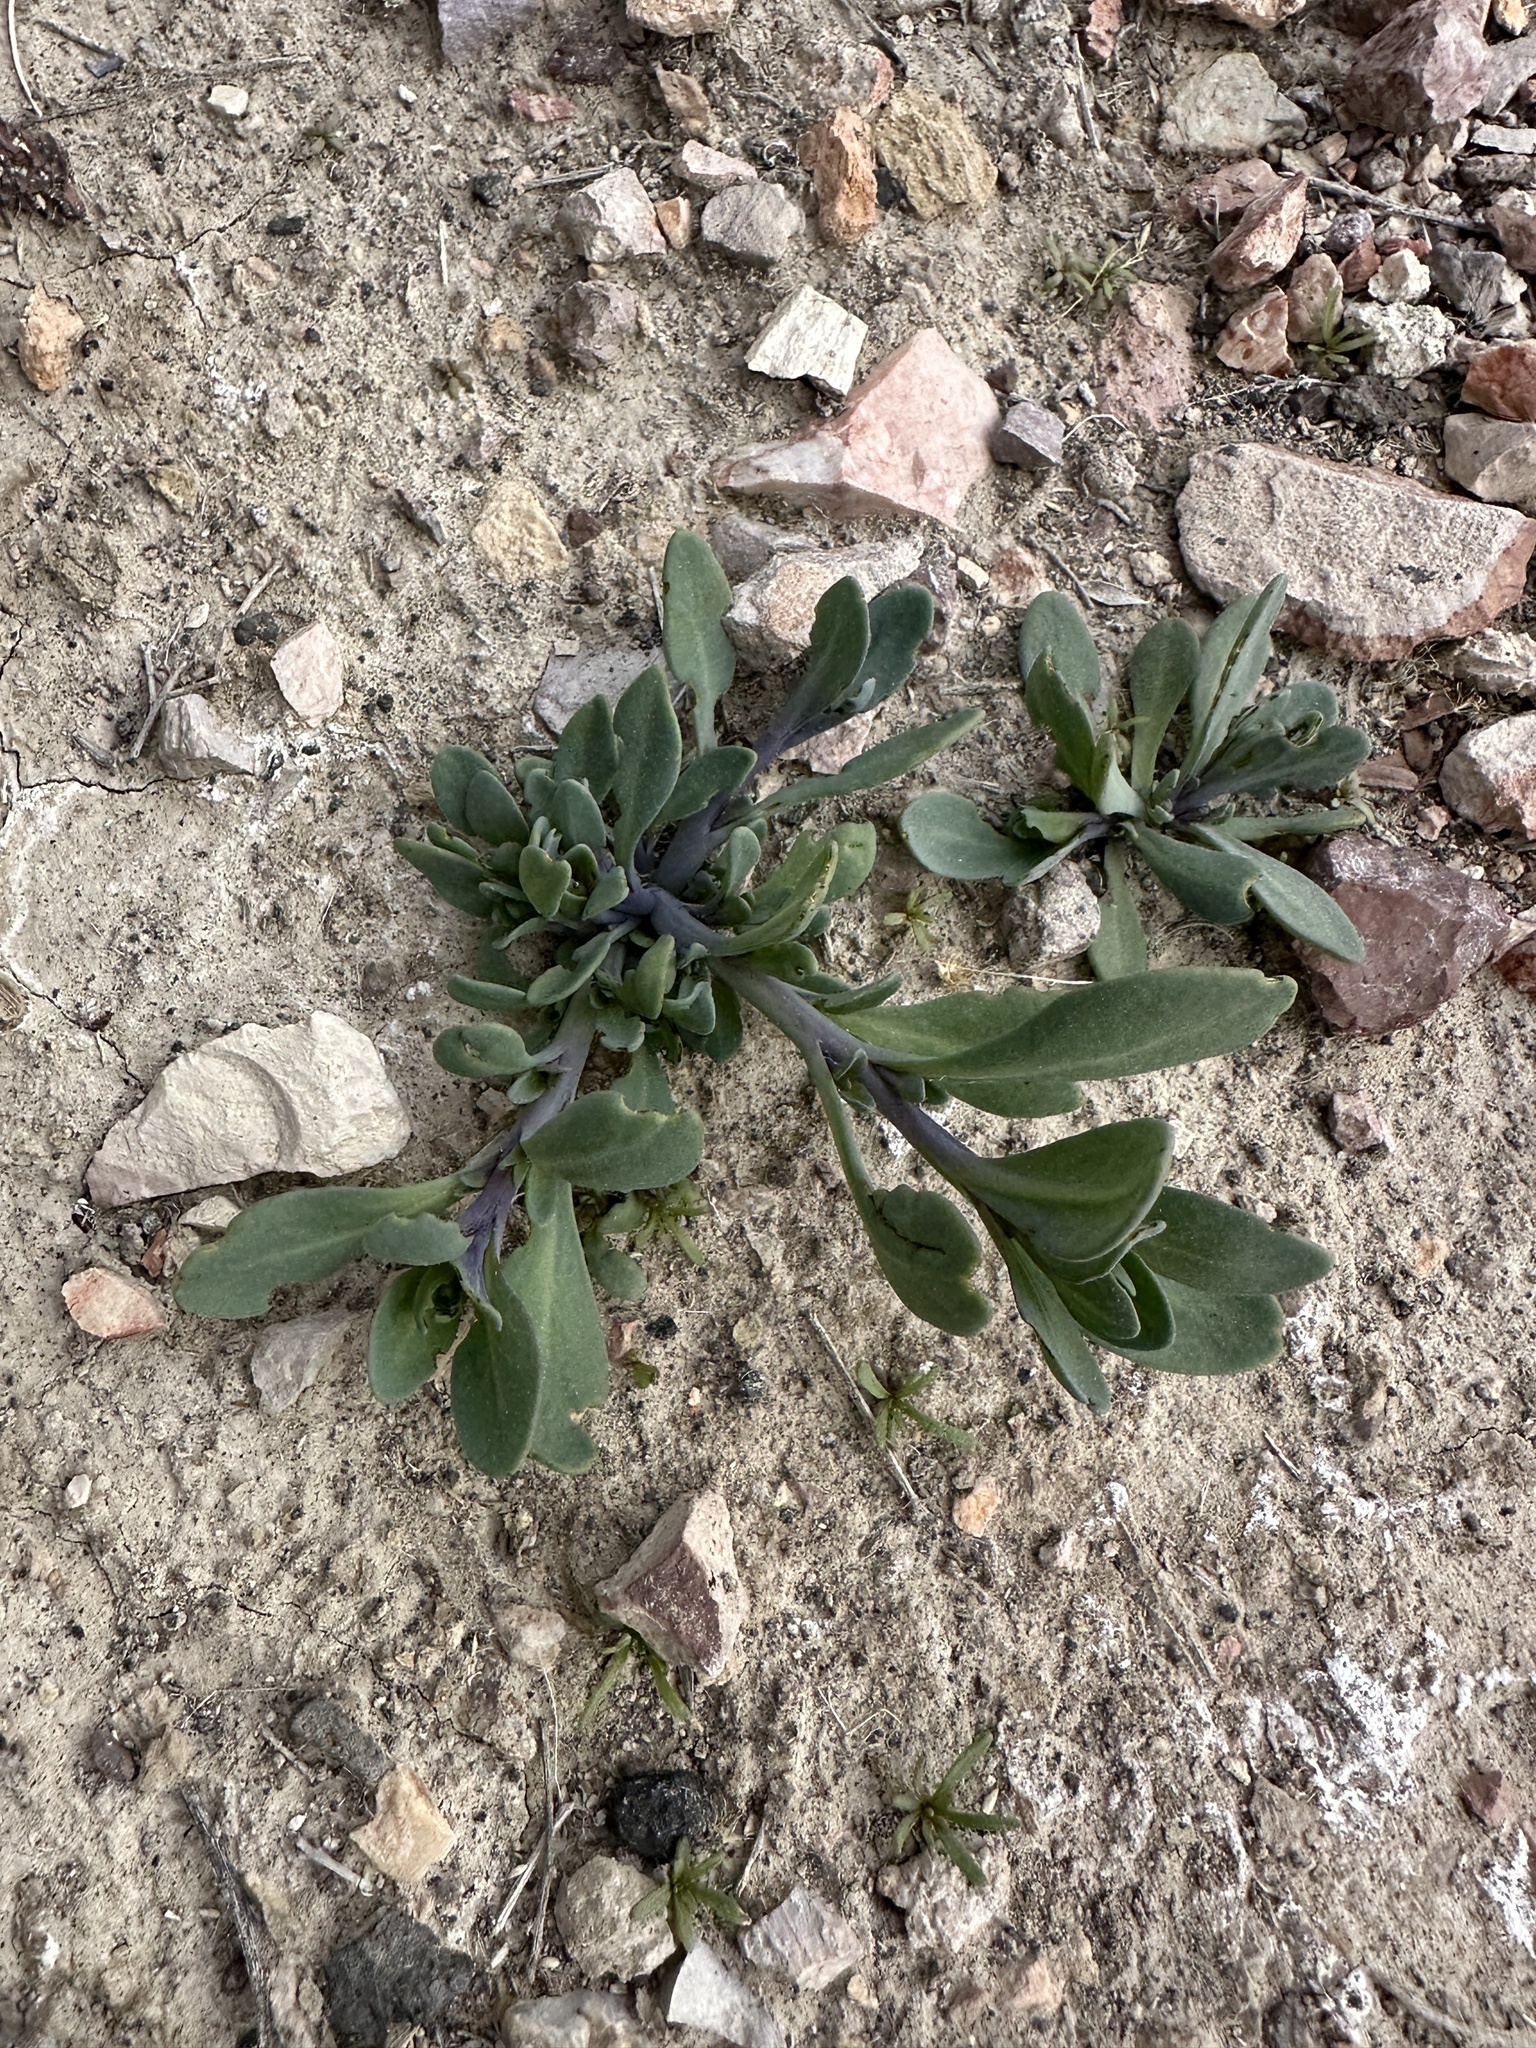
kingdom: Plantae
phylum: Tracheophyta
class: Magnoliopsida
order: Boraginales
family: Heliotropiaceae
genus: Heliotropium
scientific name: Heliotropium curassavicum
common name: Seaside heliotrope
